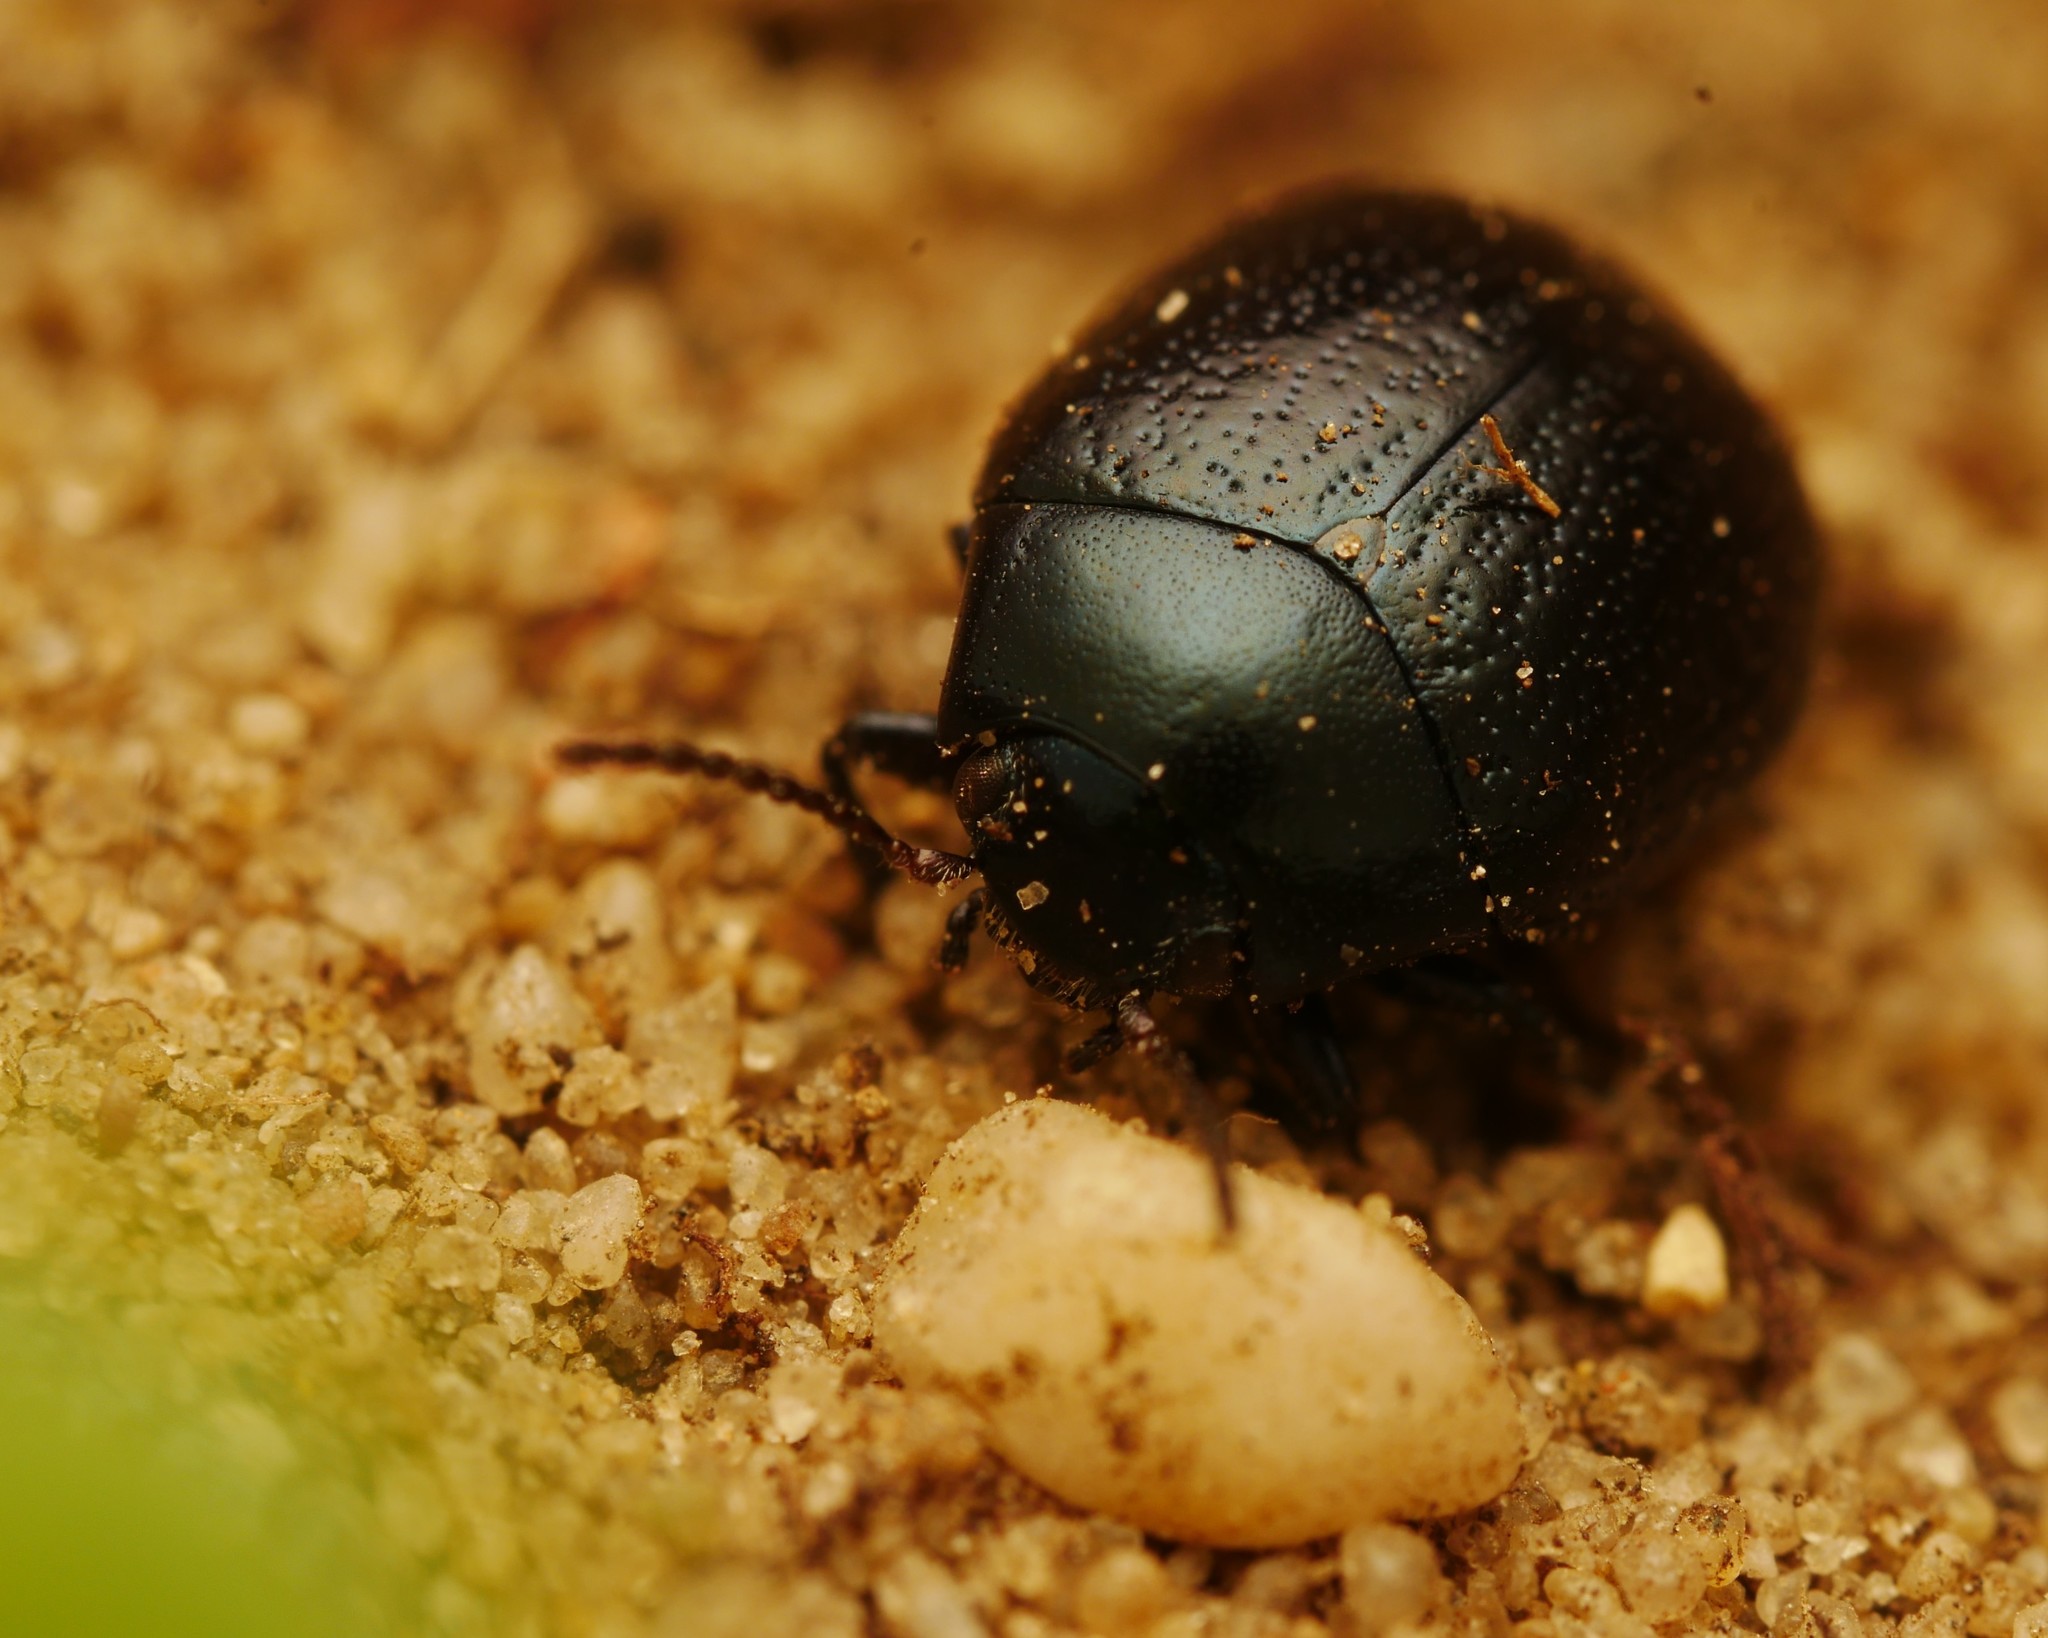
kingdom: Animalia
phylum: Arthropoda
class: Insecta
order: Coleoptera
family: Chrysomelidae
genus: Chrysolina
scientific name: Chrysolina haemoptera
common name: Plantain leaf beetle
